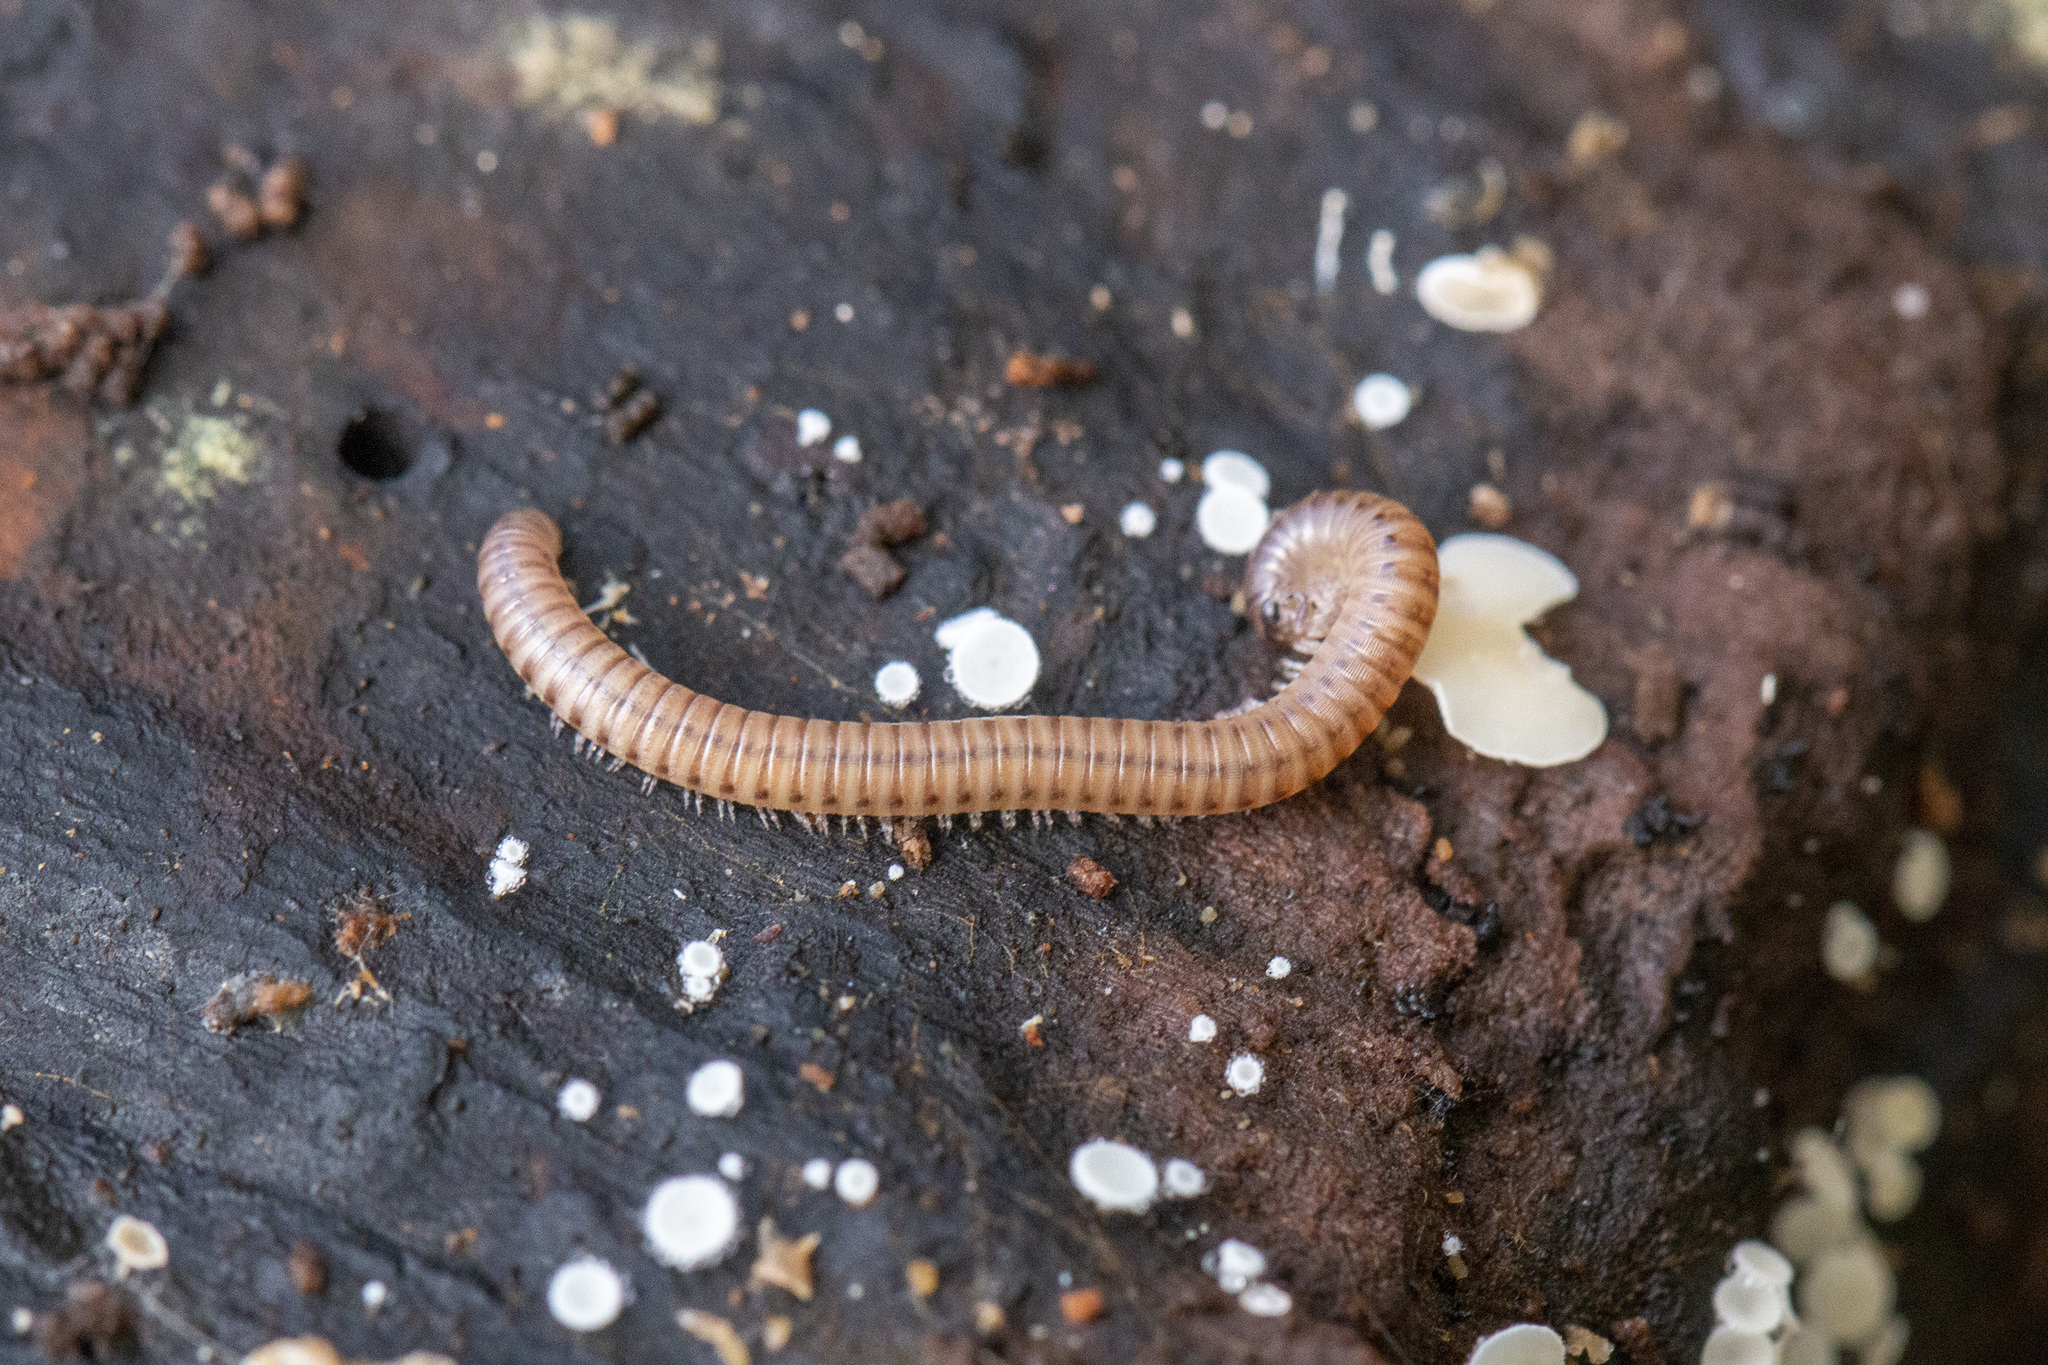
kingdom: Animalia
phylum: Arthropoda
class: Diplopoda
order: Julida
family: Julidae
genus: Cylindroiulus
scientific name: Cylindroiulus punctatus
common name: Blunt-tailed millipede
